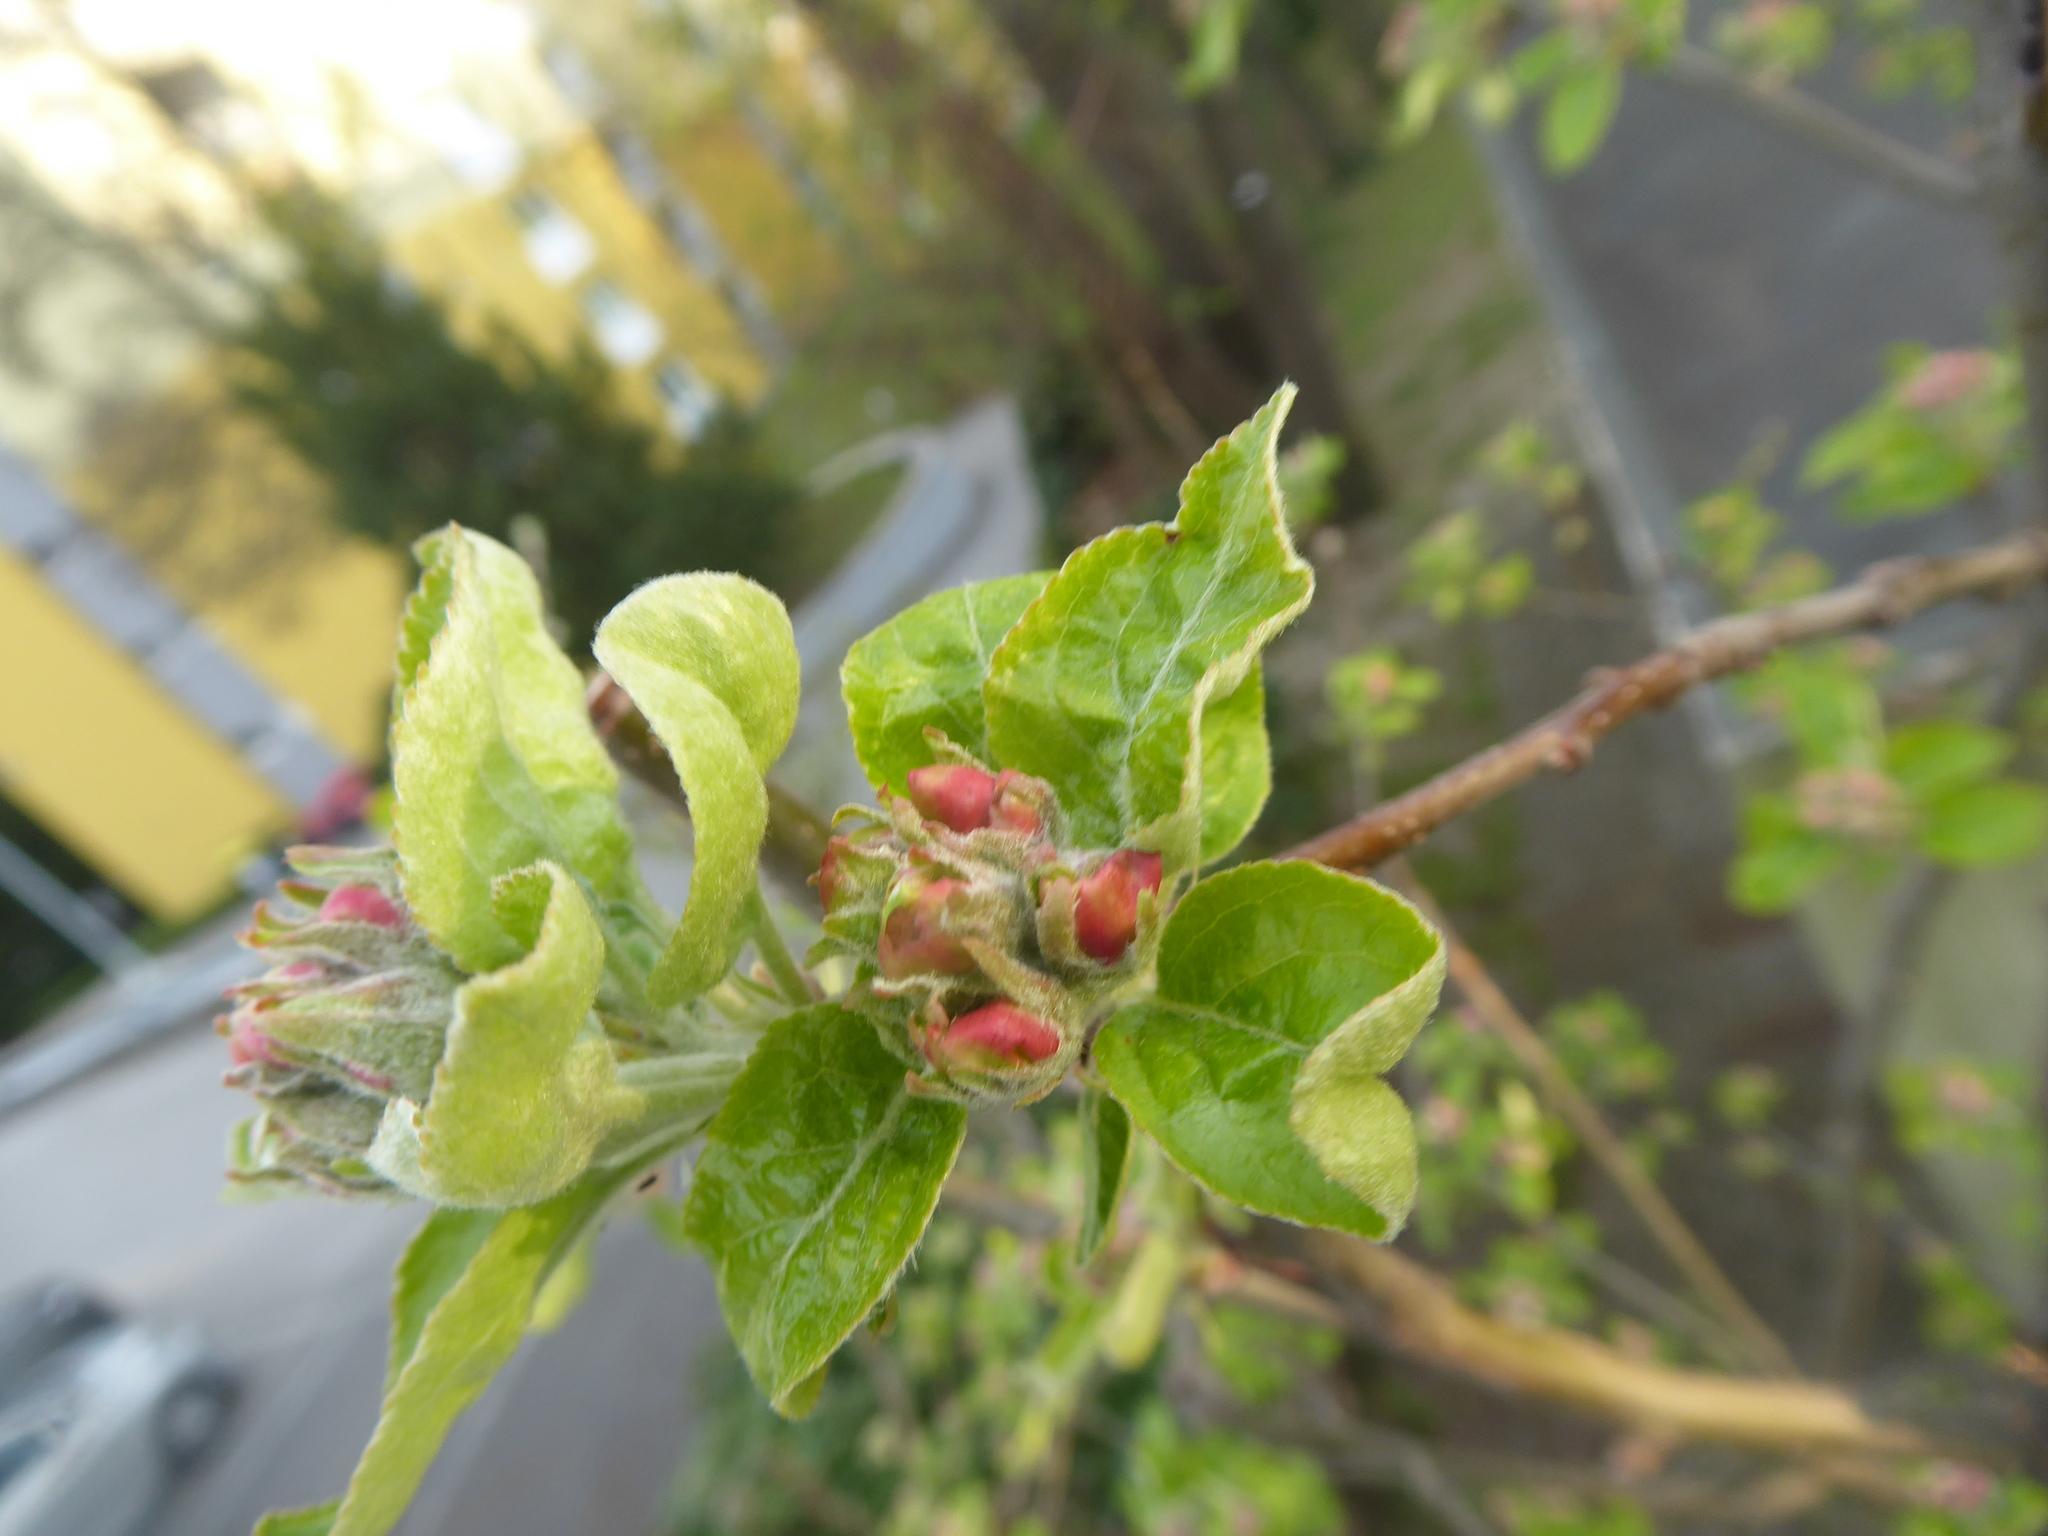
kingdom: Plantae
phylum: Tracheophyta
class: Magnoliopsida
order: Rosales
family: Rosaceae
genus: Malus
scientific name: Malus domestica
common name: Apple
